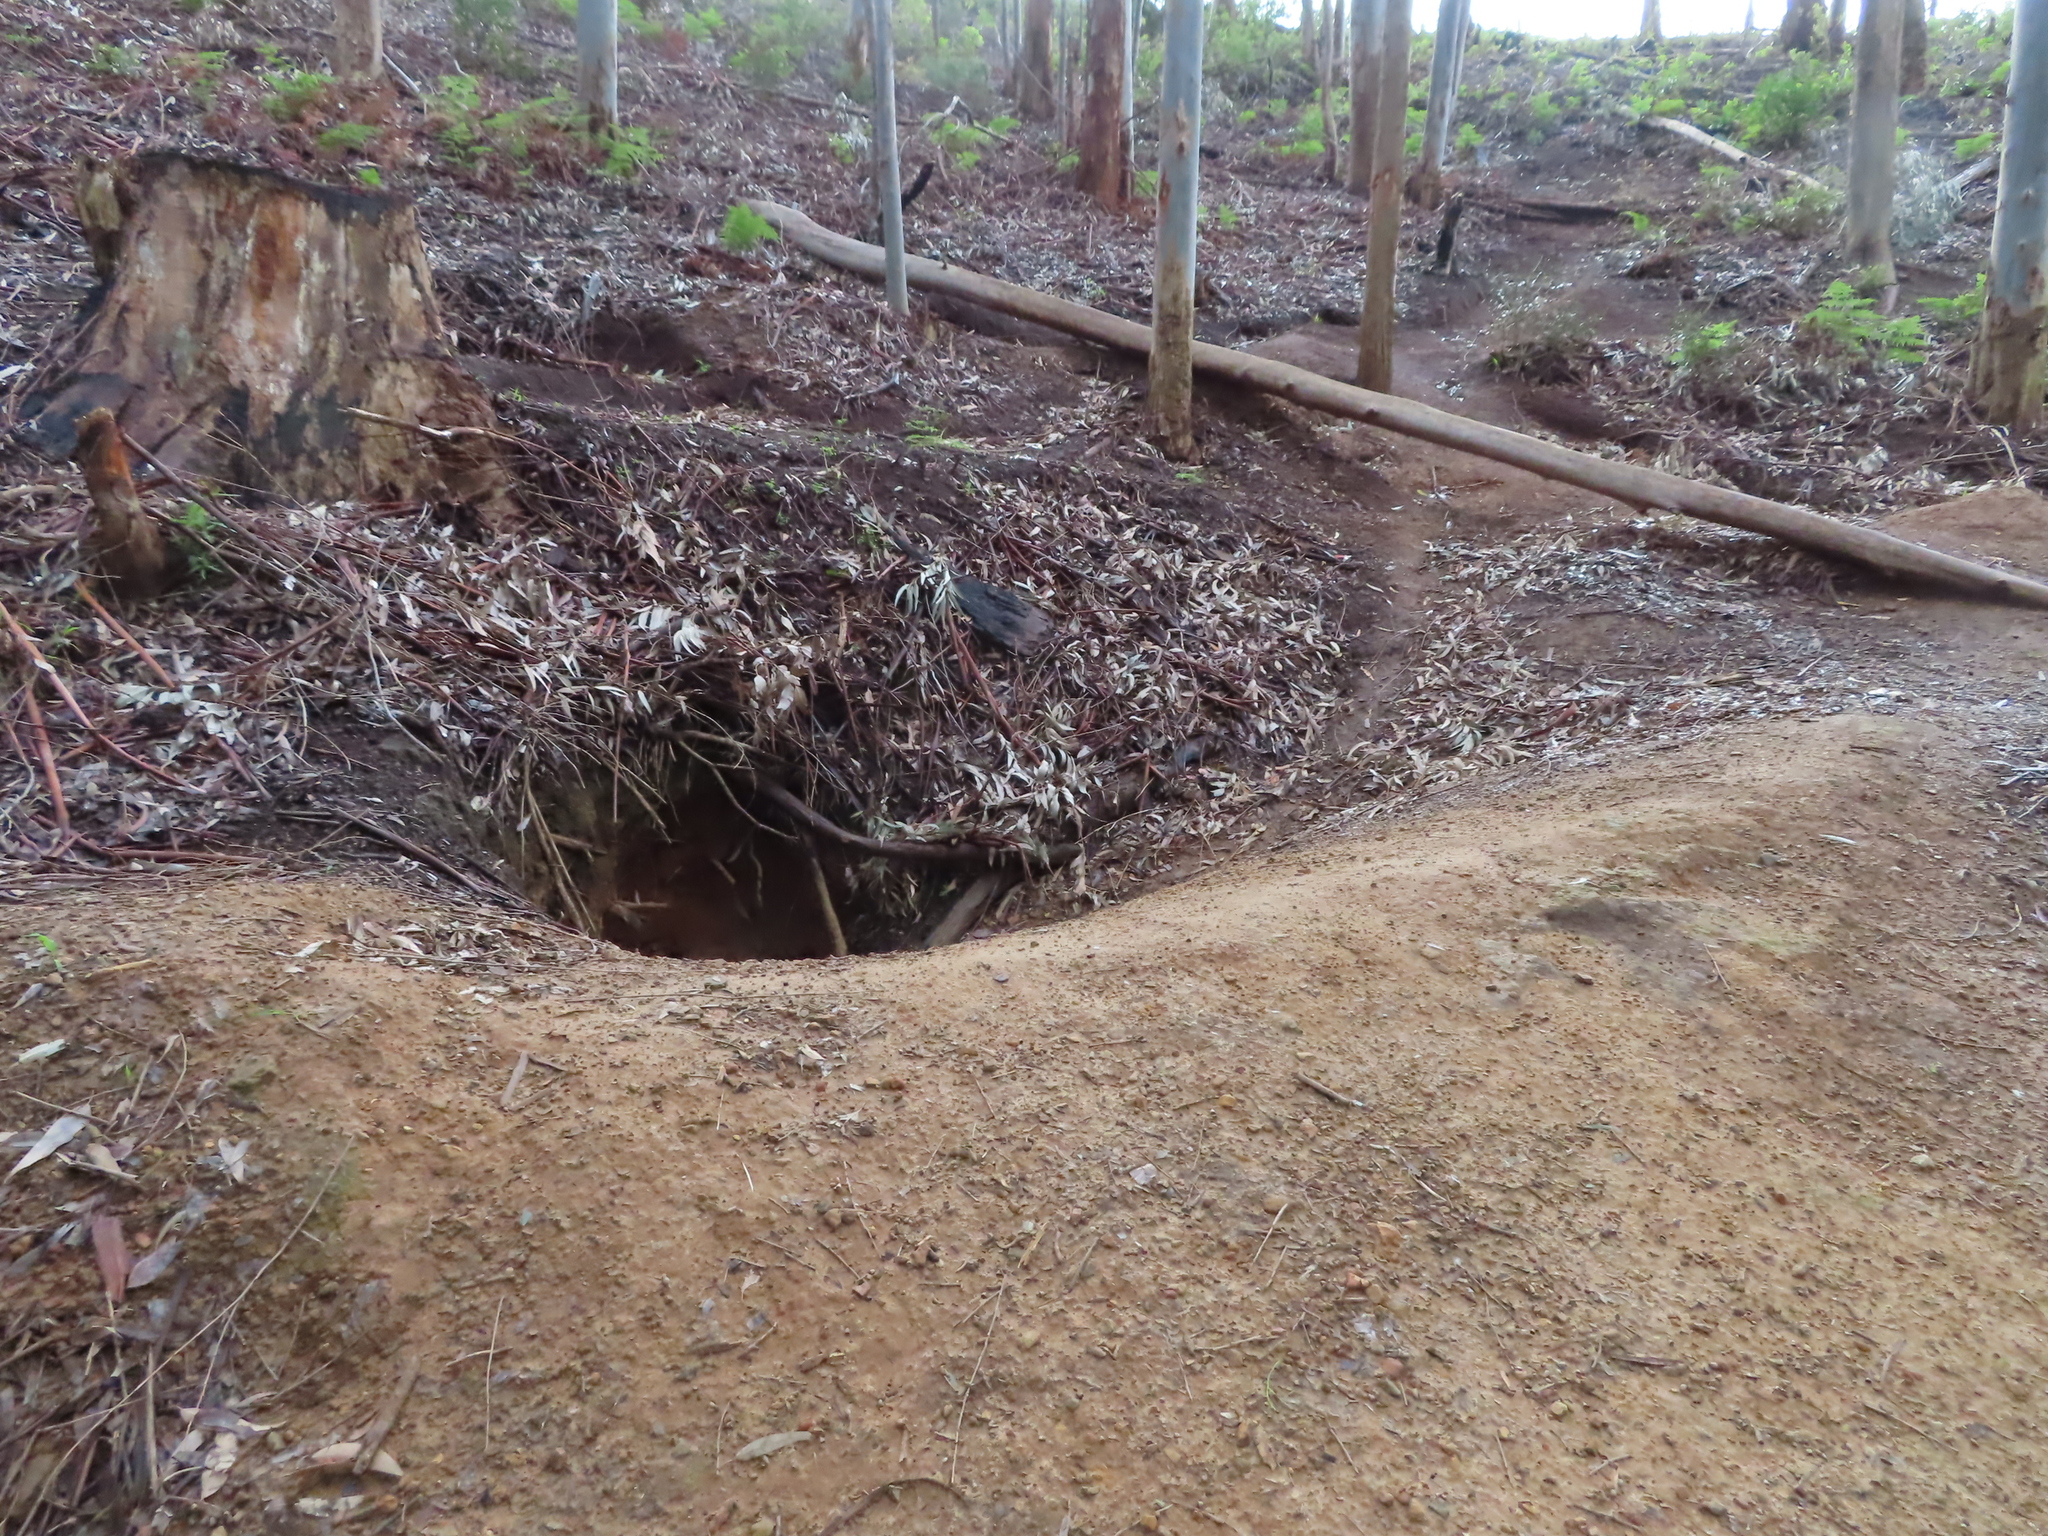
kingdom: Animalia
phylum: Chordata
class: Mammalia
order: Rodentia
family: Hystricidae
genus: Hystrix
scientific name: Hystrix africaeaustralis
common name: Cape porcupine
